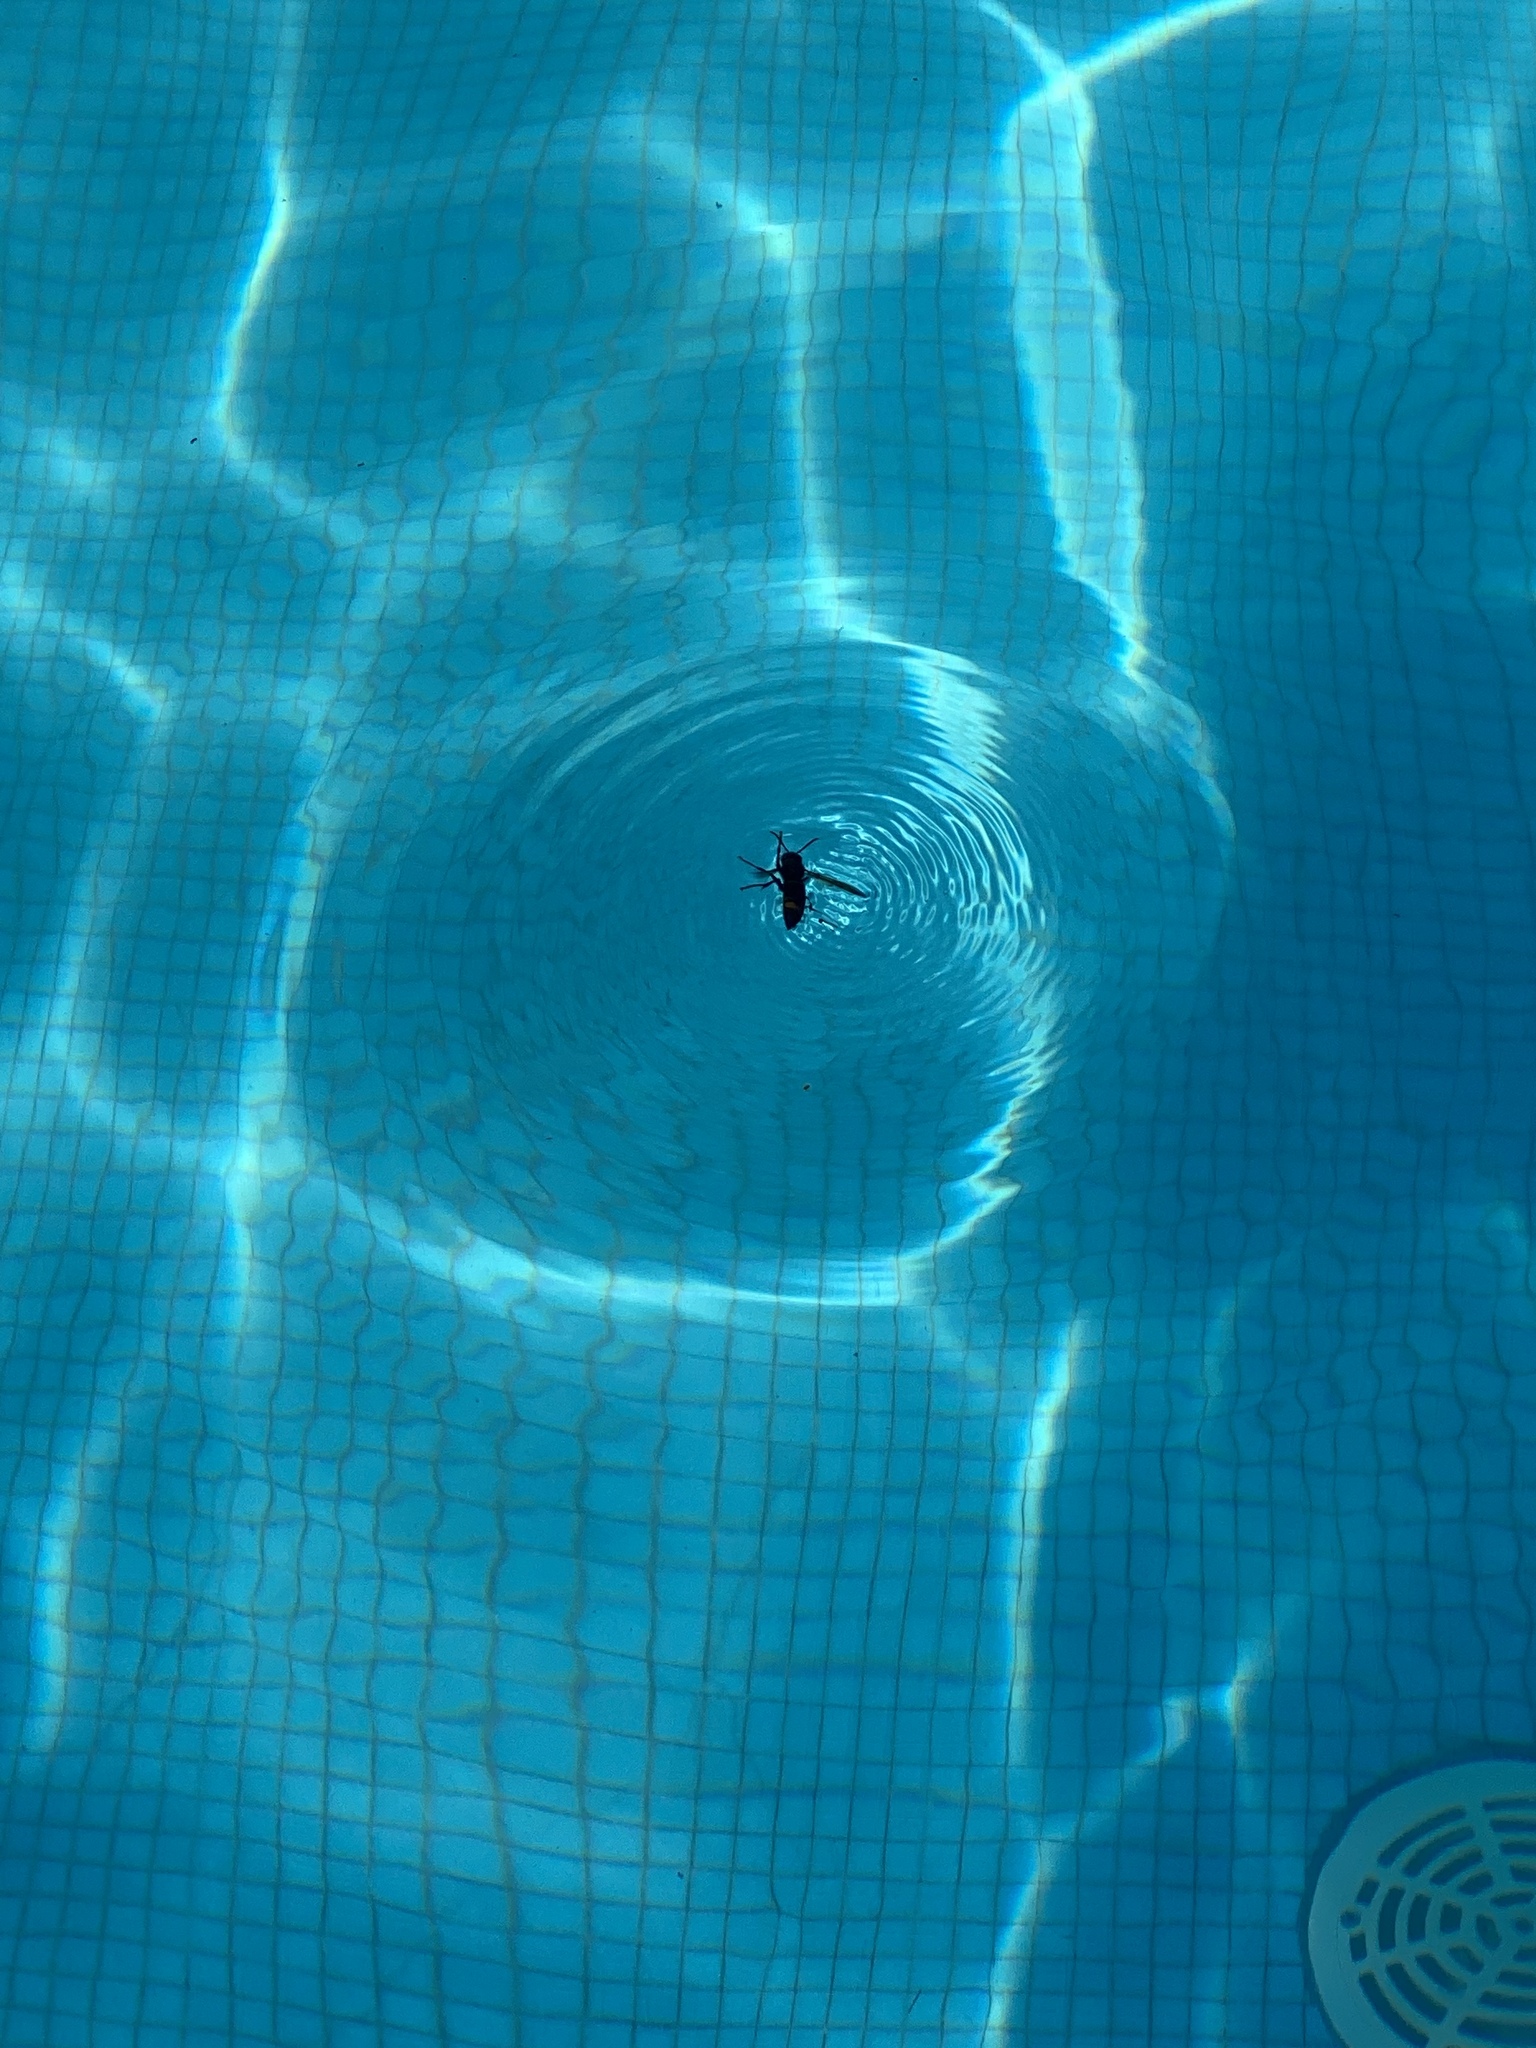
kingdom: Animalia
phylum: Arthropoda
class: Insecta
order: Hymenoptera
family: Vespidae
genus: Vespa
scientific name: Vespa velutina
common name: Asian hornet
